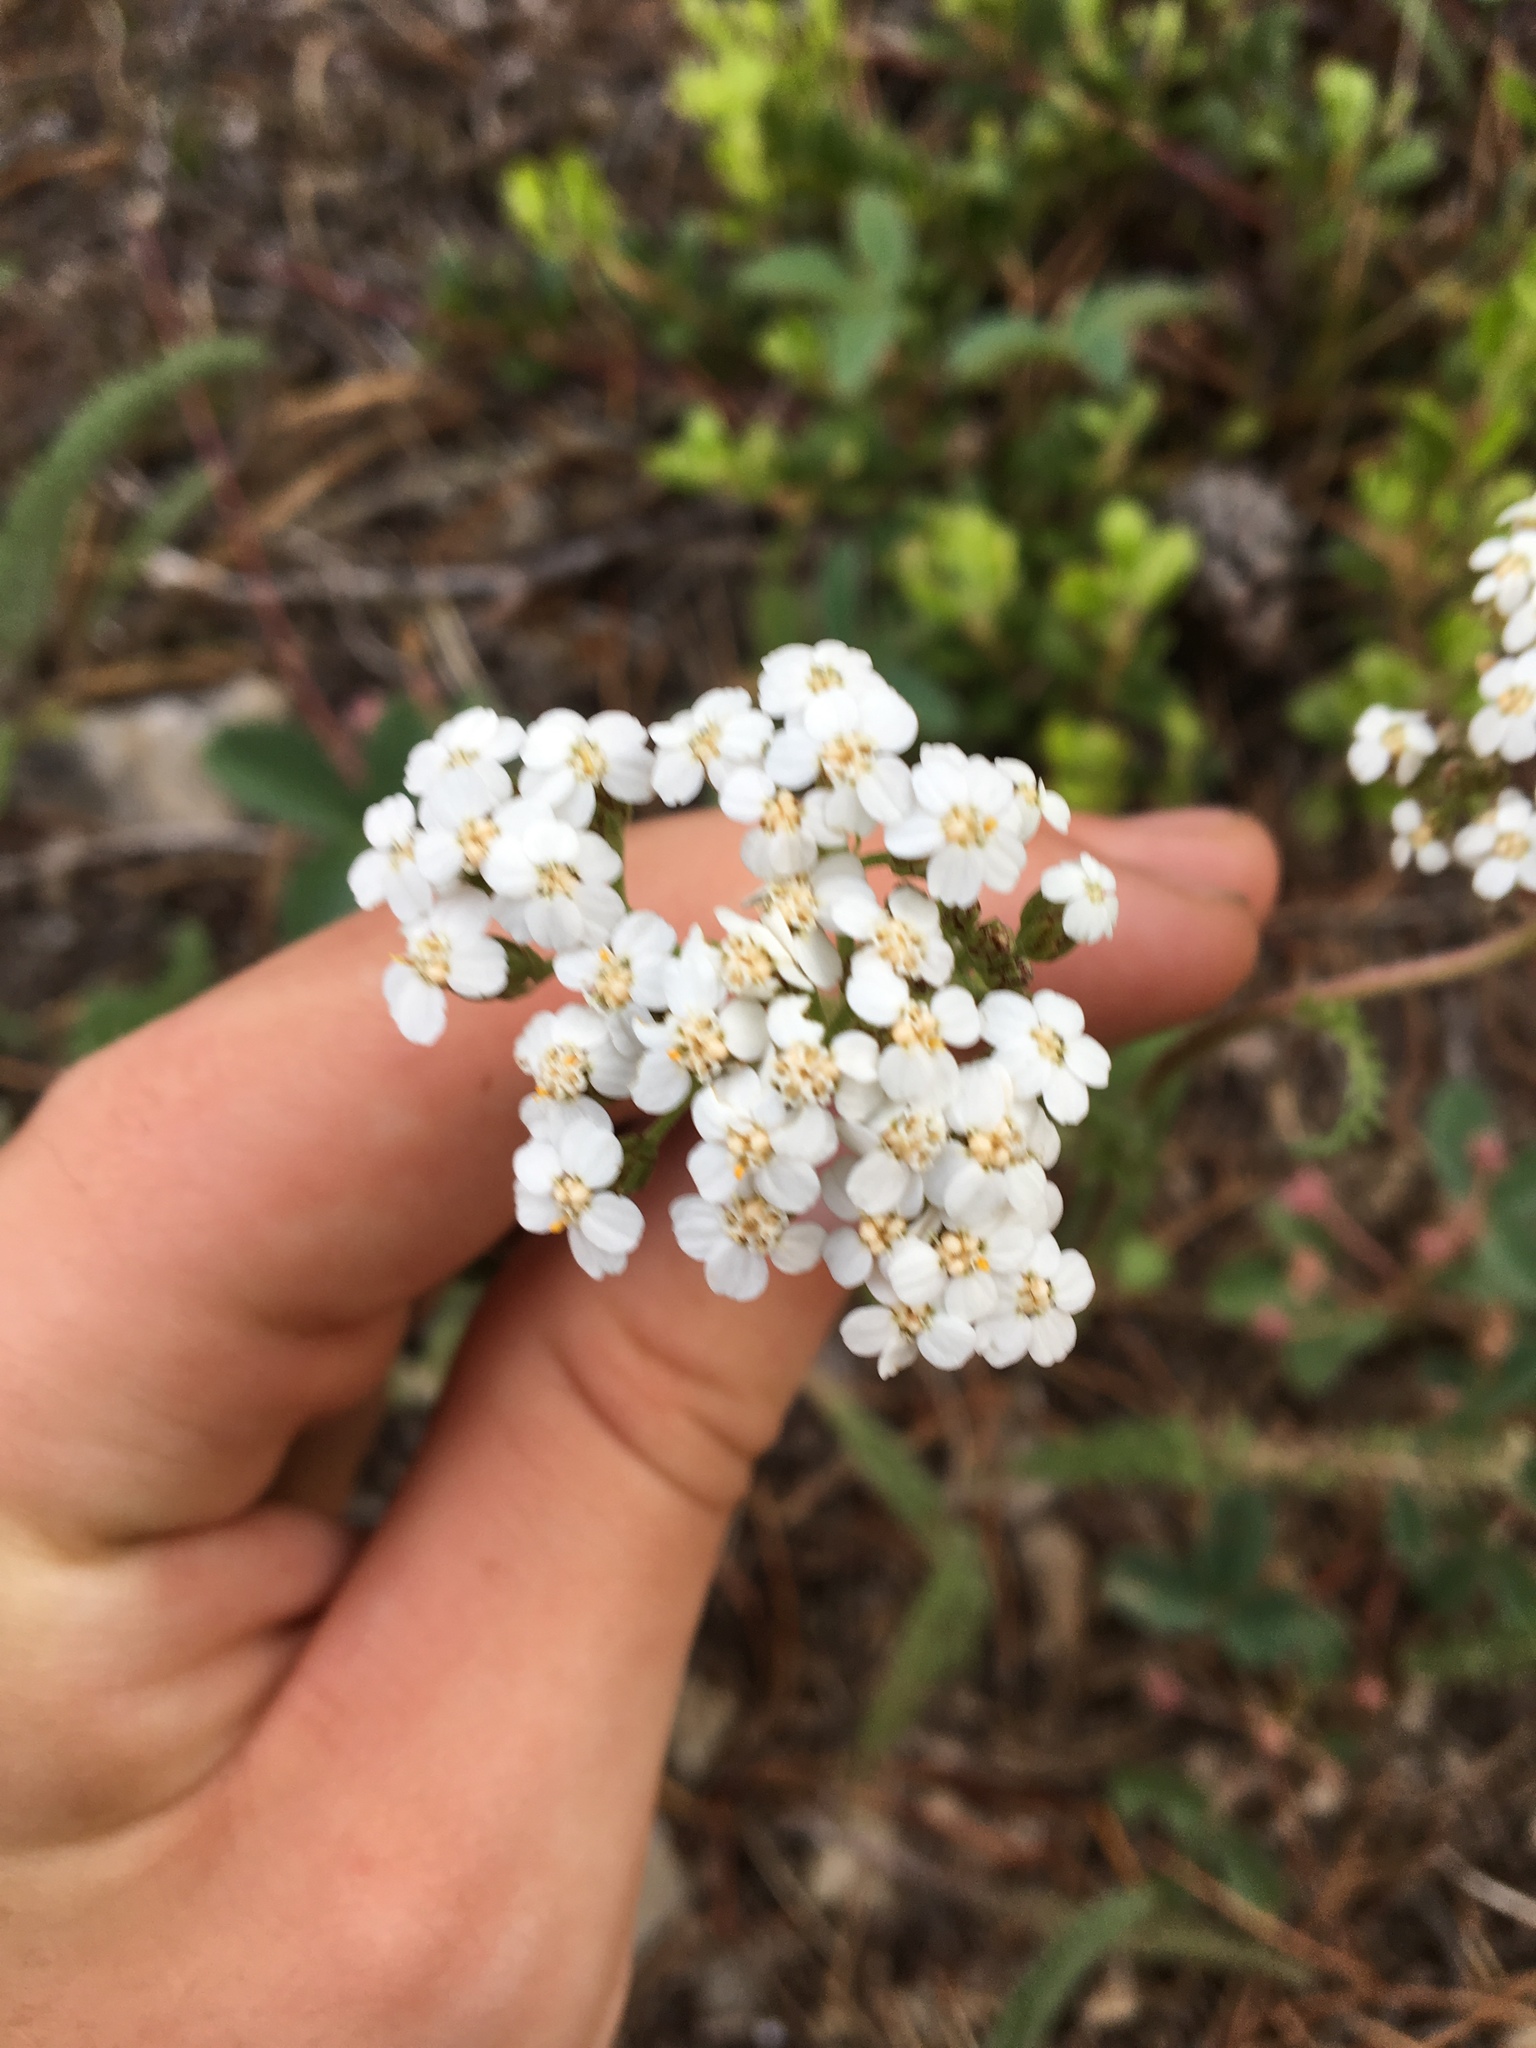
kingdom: Plantae
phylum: Tracheophyta
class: Magnoliopsida
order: Asterales
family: Asteraceae
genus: Achillea
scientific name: Achillea millefolium
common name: Yarrow
